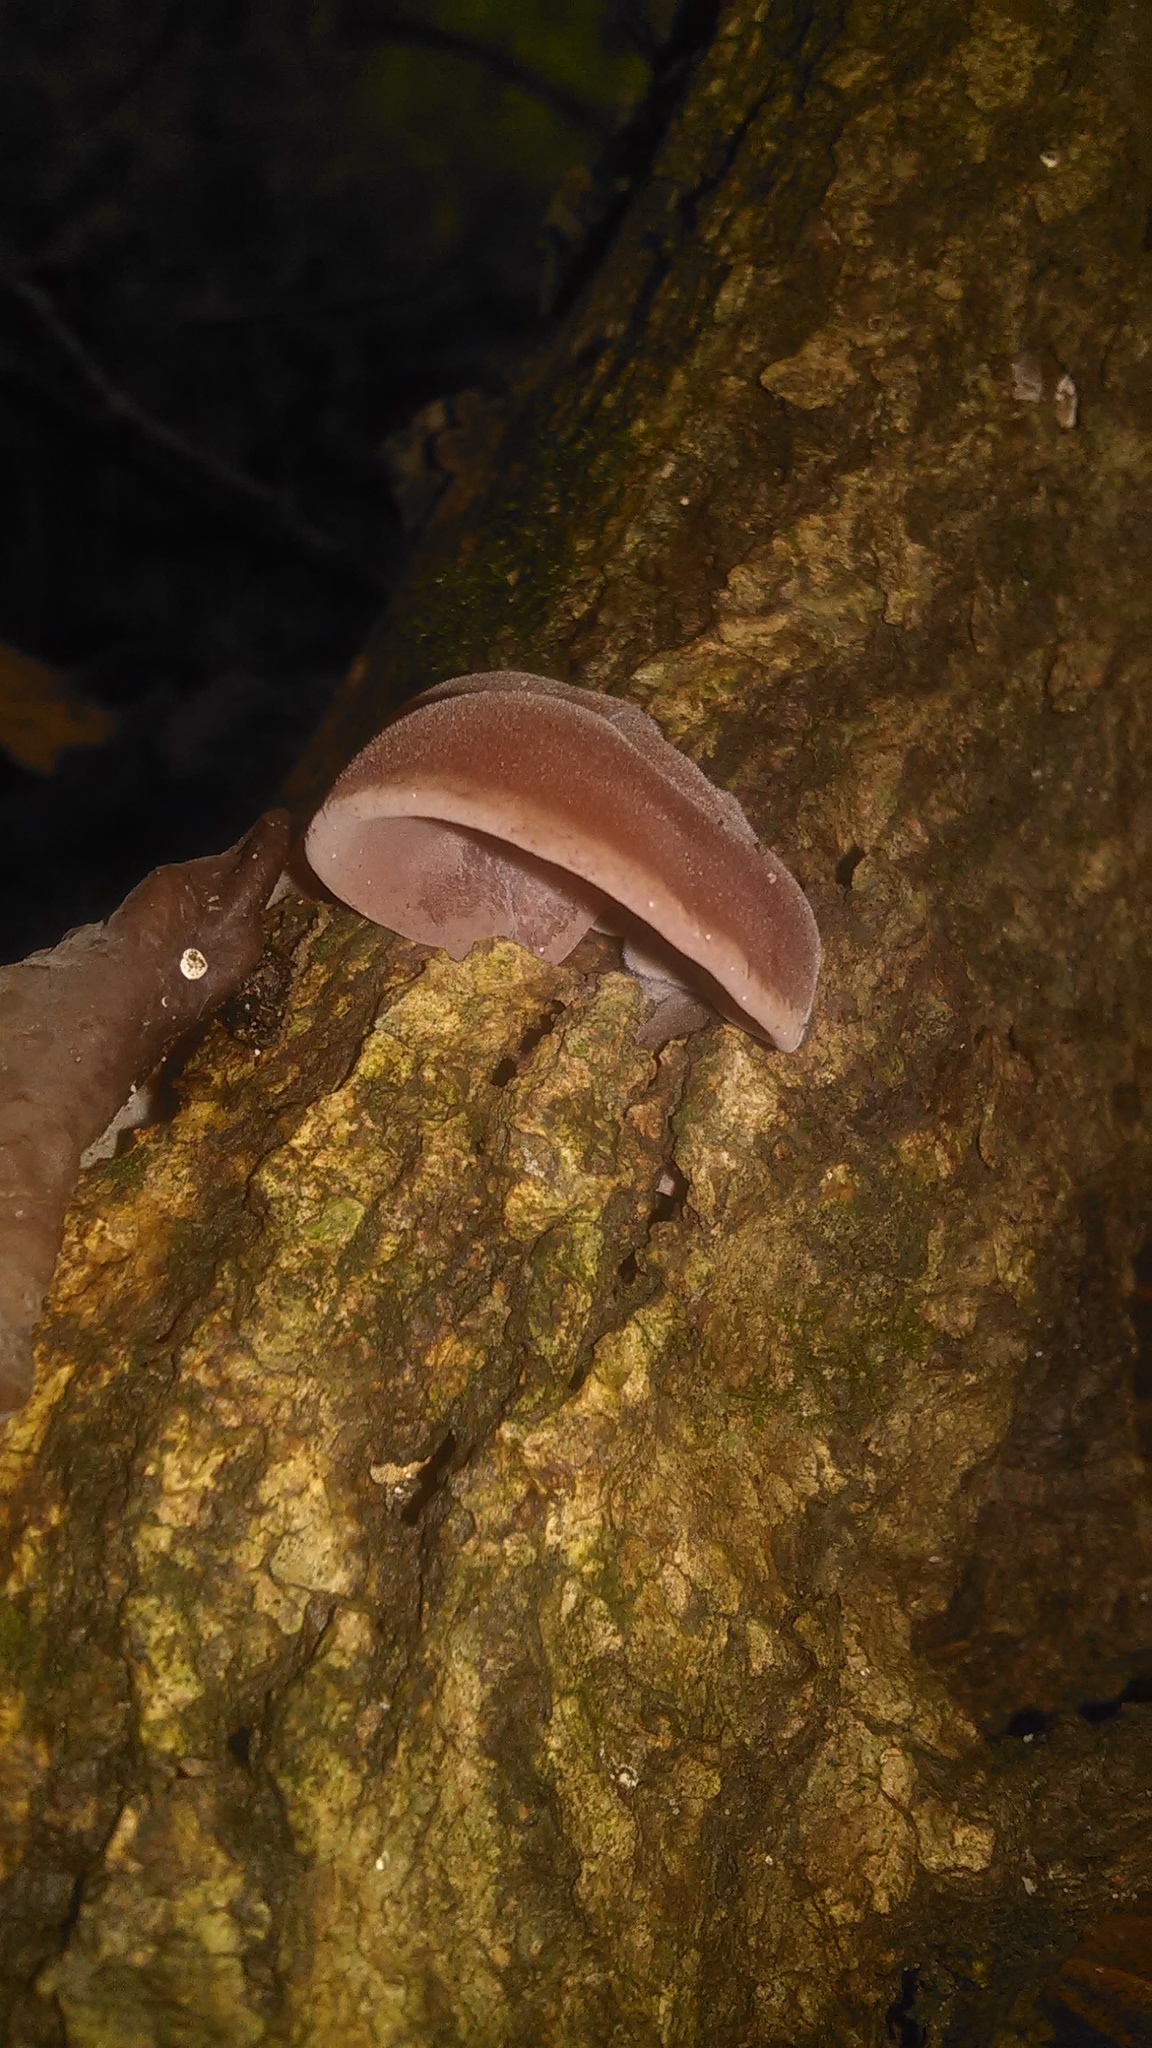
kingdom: Fungi
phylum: Basidiomycota
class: Agaricomycetes
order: Auriculariales
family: Auriculariaceae
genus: Auricularia
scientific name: Auricularia angiospermarum
